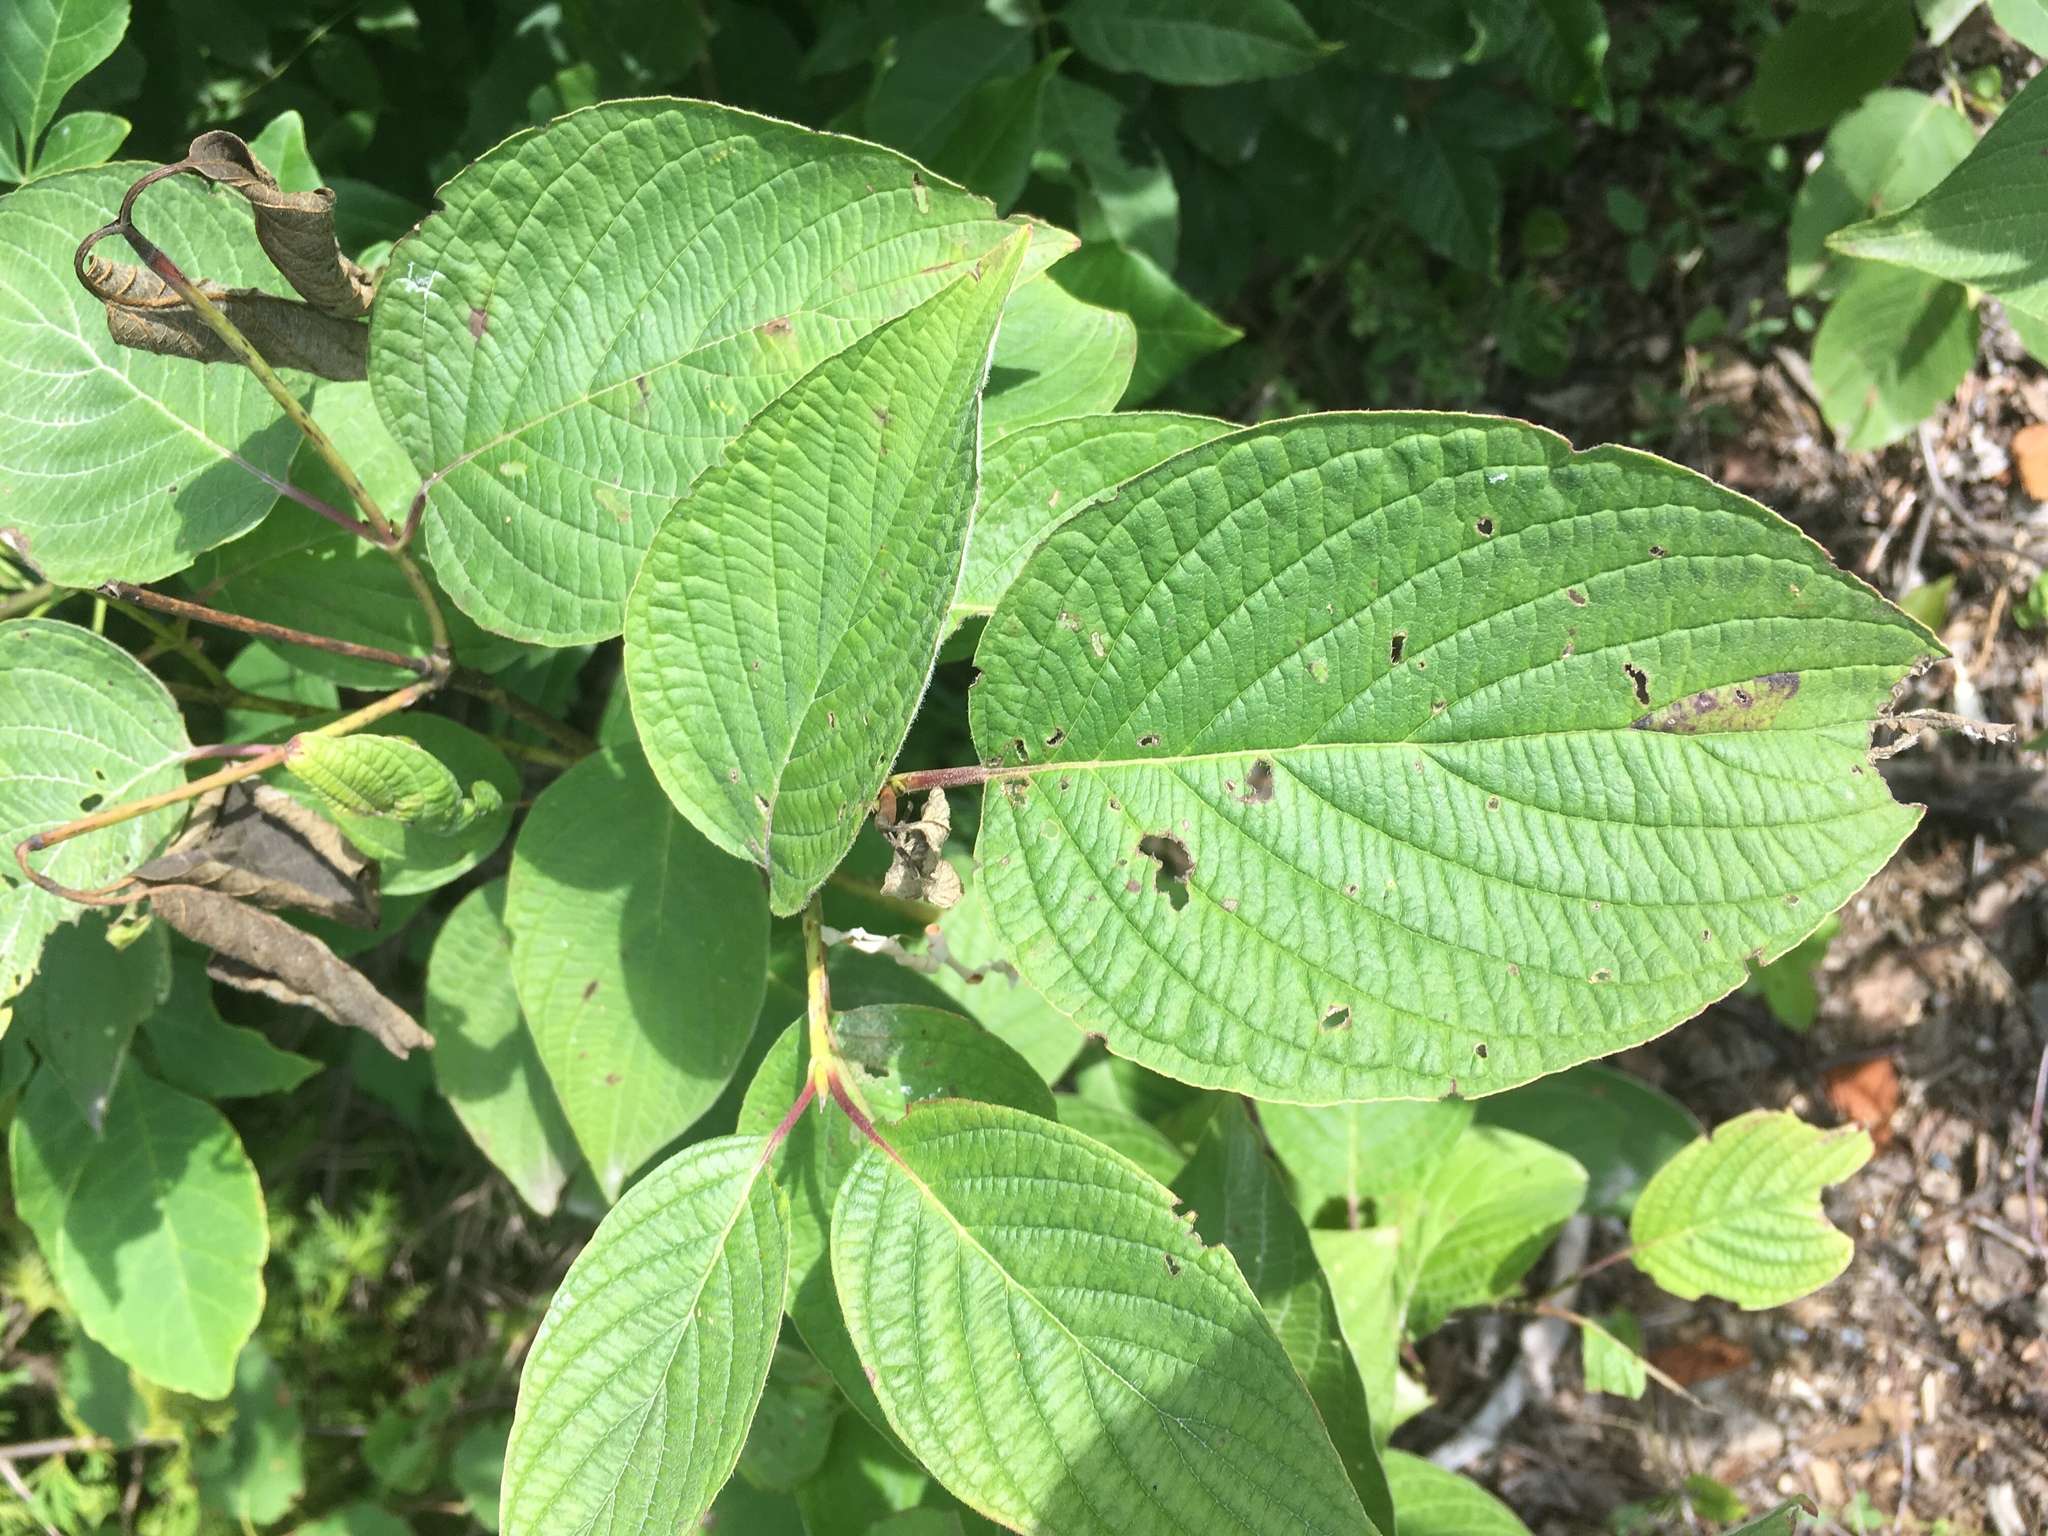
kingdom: Plantae
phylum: Tracheophyta
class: Magnoliopsida
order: Cornales
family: Cornaceae
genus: Cornus
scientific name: Cornus rugosa
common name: Round-leaf dogwood
